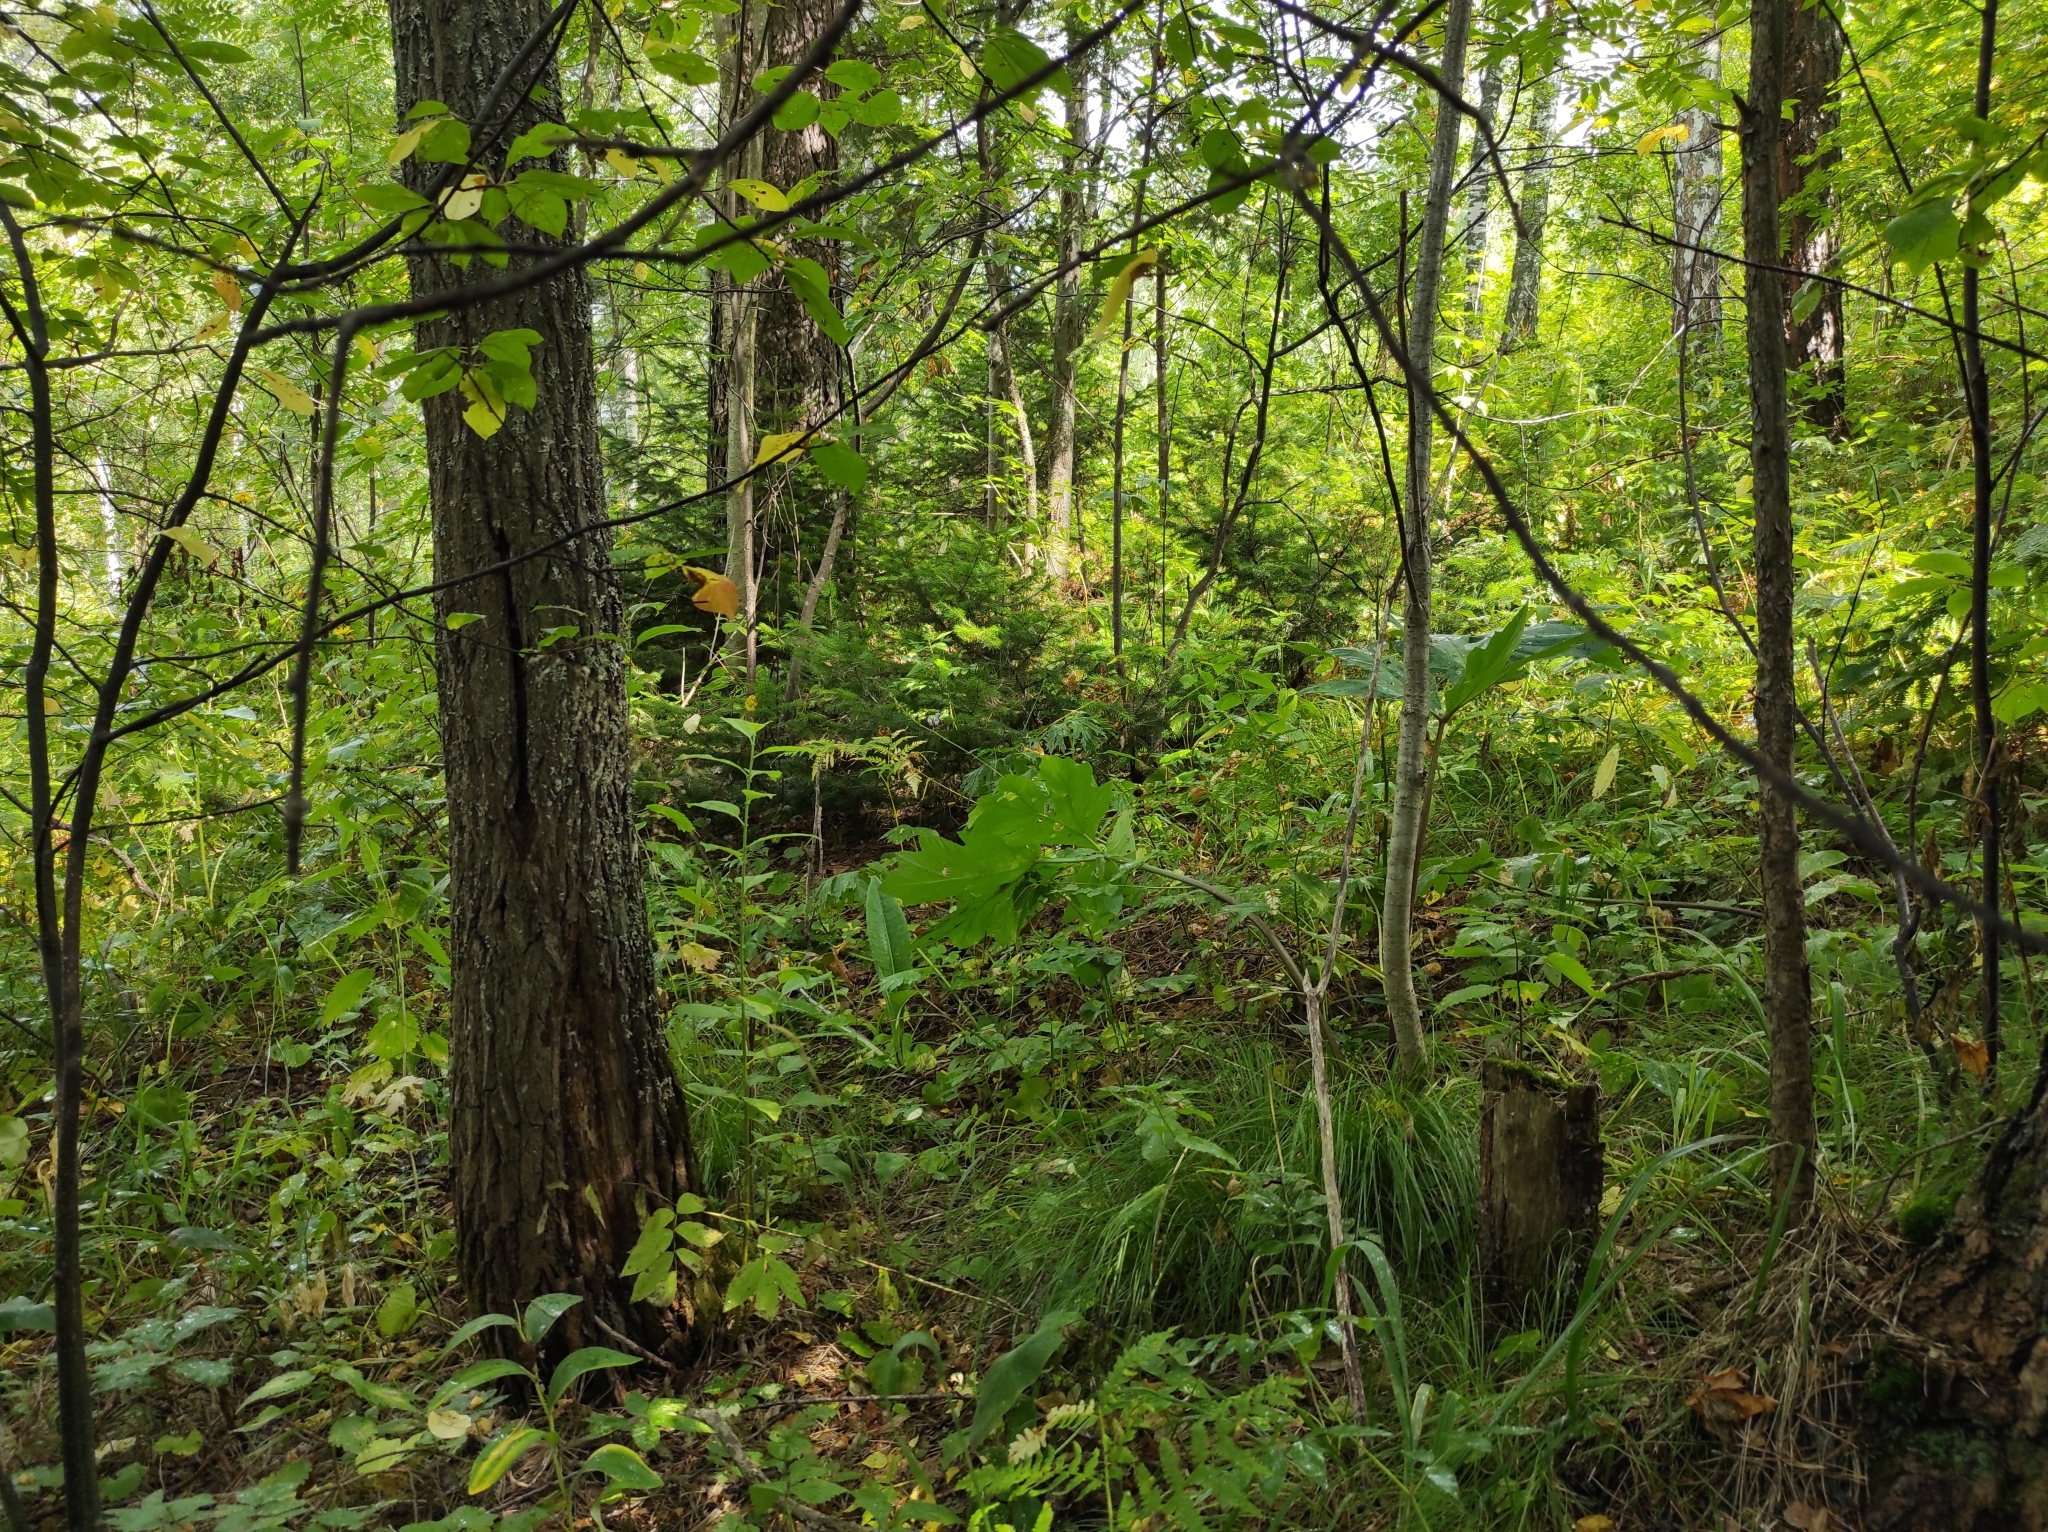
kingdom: Plantae
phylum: Tracheophyta
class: Pinopsida
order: Pinales
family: Pinaceae
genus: Abies
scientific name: Abies sibirica
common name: Siberian fir
